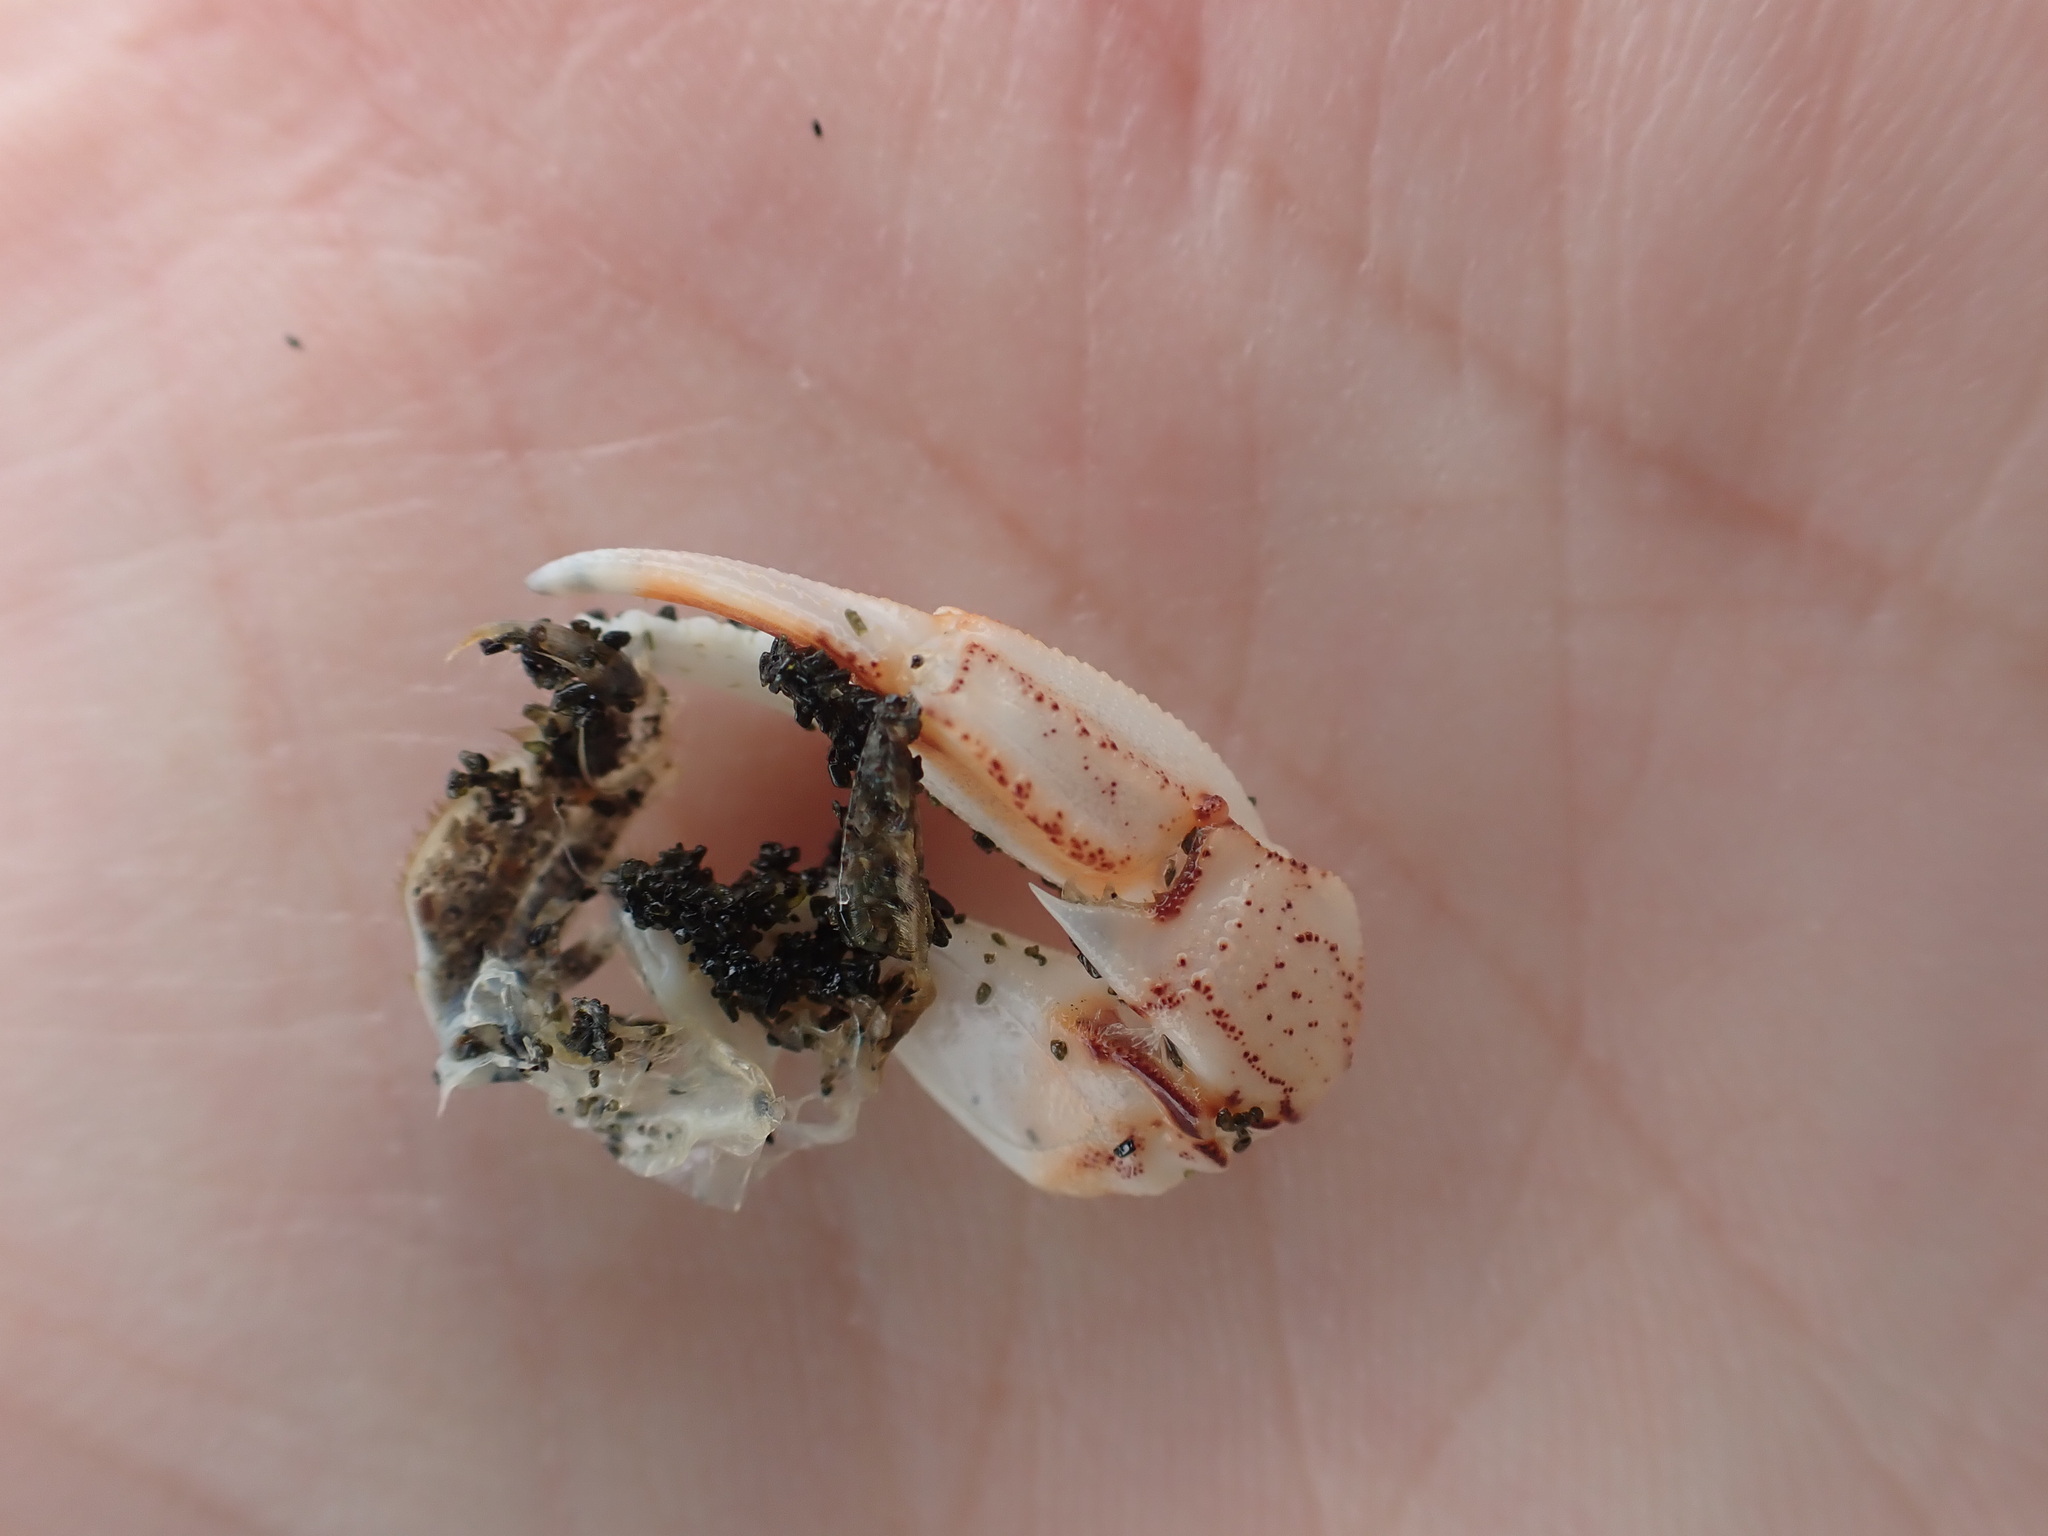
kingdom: Animalia
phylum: Arthropoda
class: Malacostraca
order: Decapoda
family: Ovalipidae
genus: Ovalipes
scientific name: Ovalipes catharus
